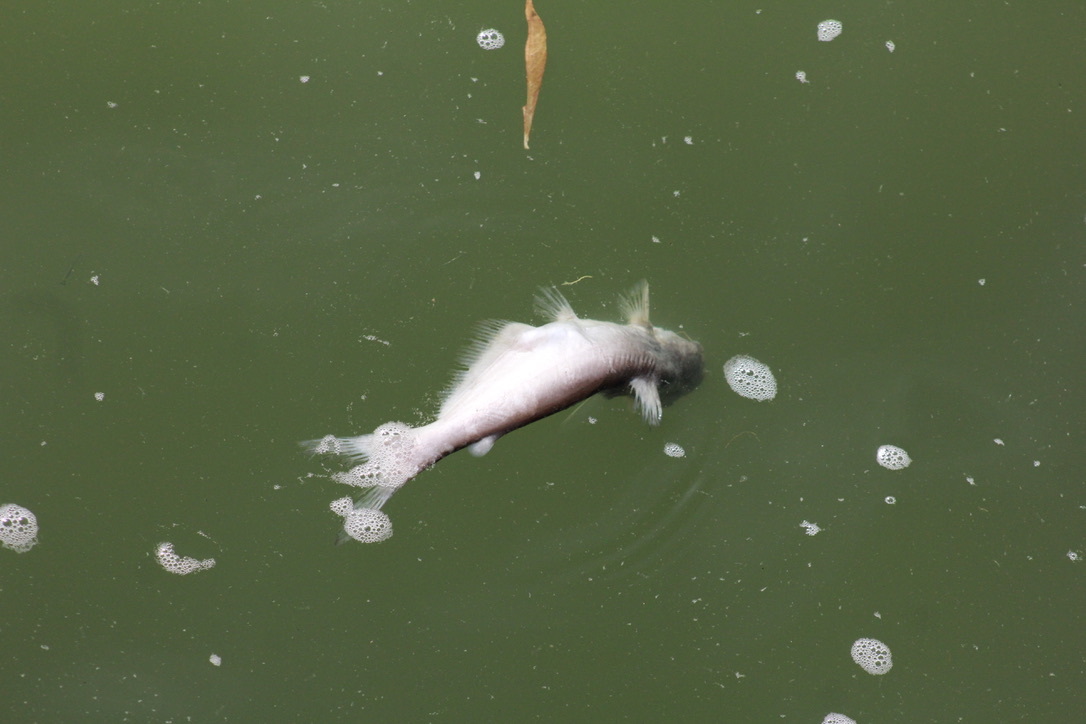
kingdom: Animalia
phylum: Chordata
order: Siluriformes
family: Ictaluridae
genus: Ictalurus
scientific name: Ictalurus furcatus
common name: Blue catfish
